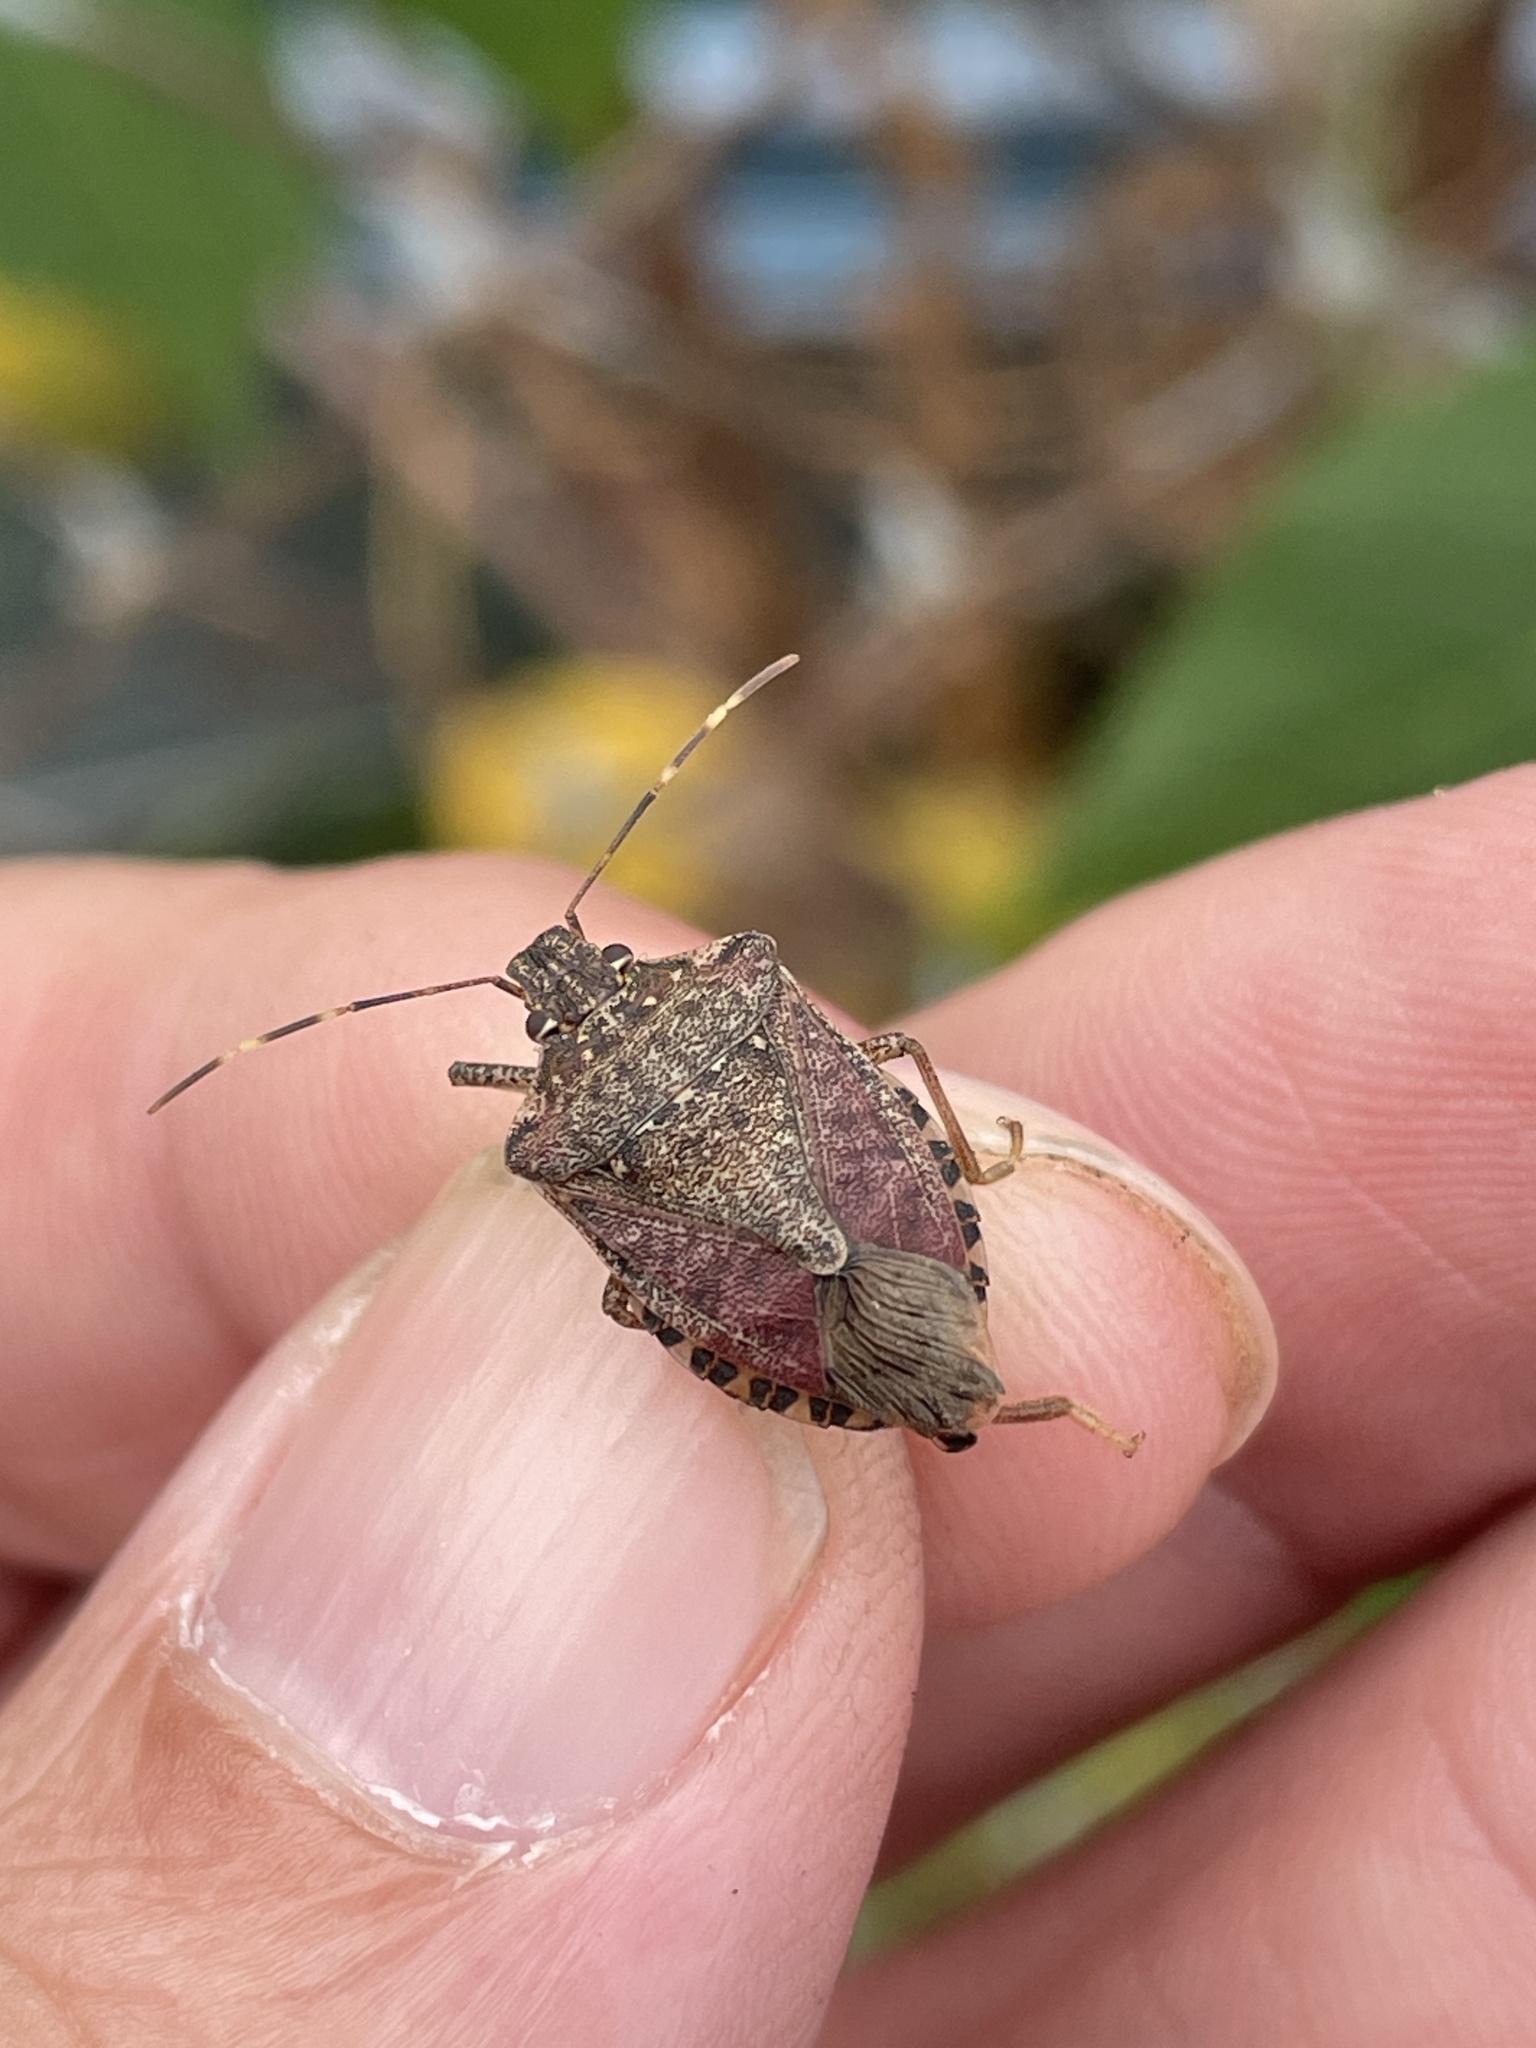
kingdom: Animalia
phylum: Arthropoda
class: Insecta
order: Hemiptera
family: Pentatomidae
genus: Halyomorpha
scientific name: Halyomorpha halys
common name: Brown marmorated stink bug
